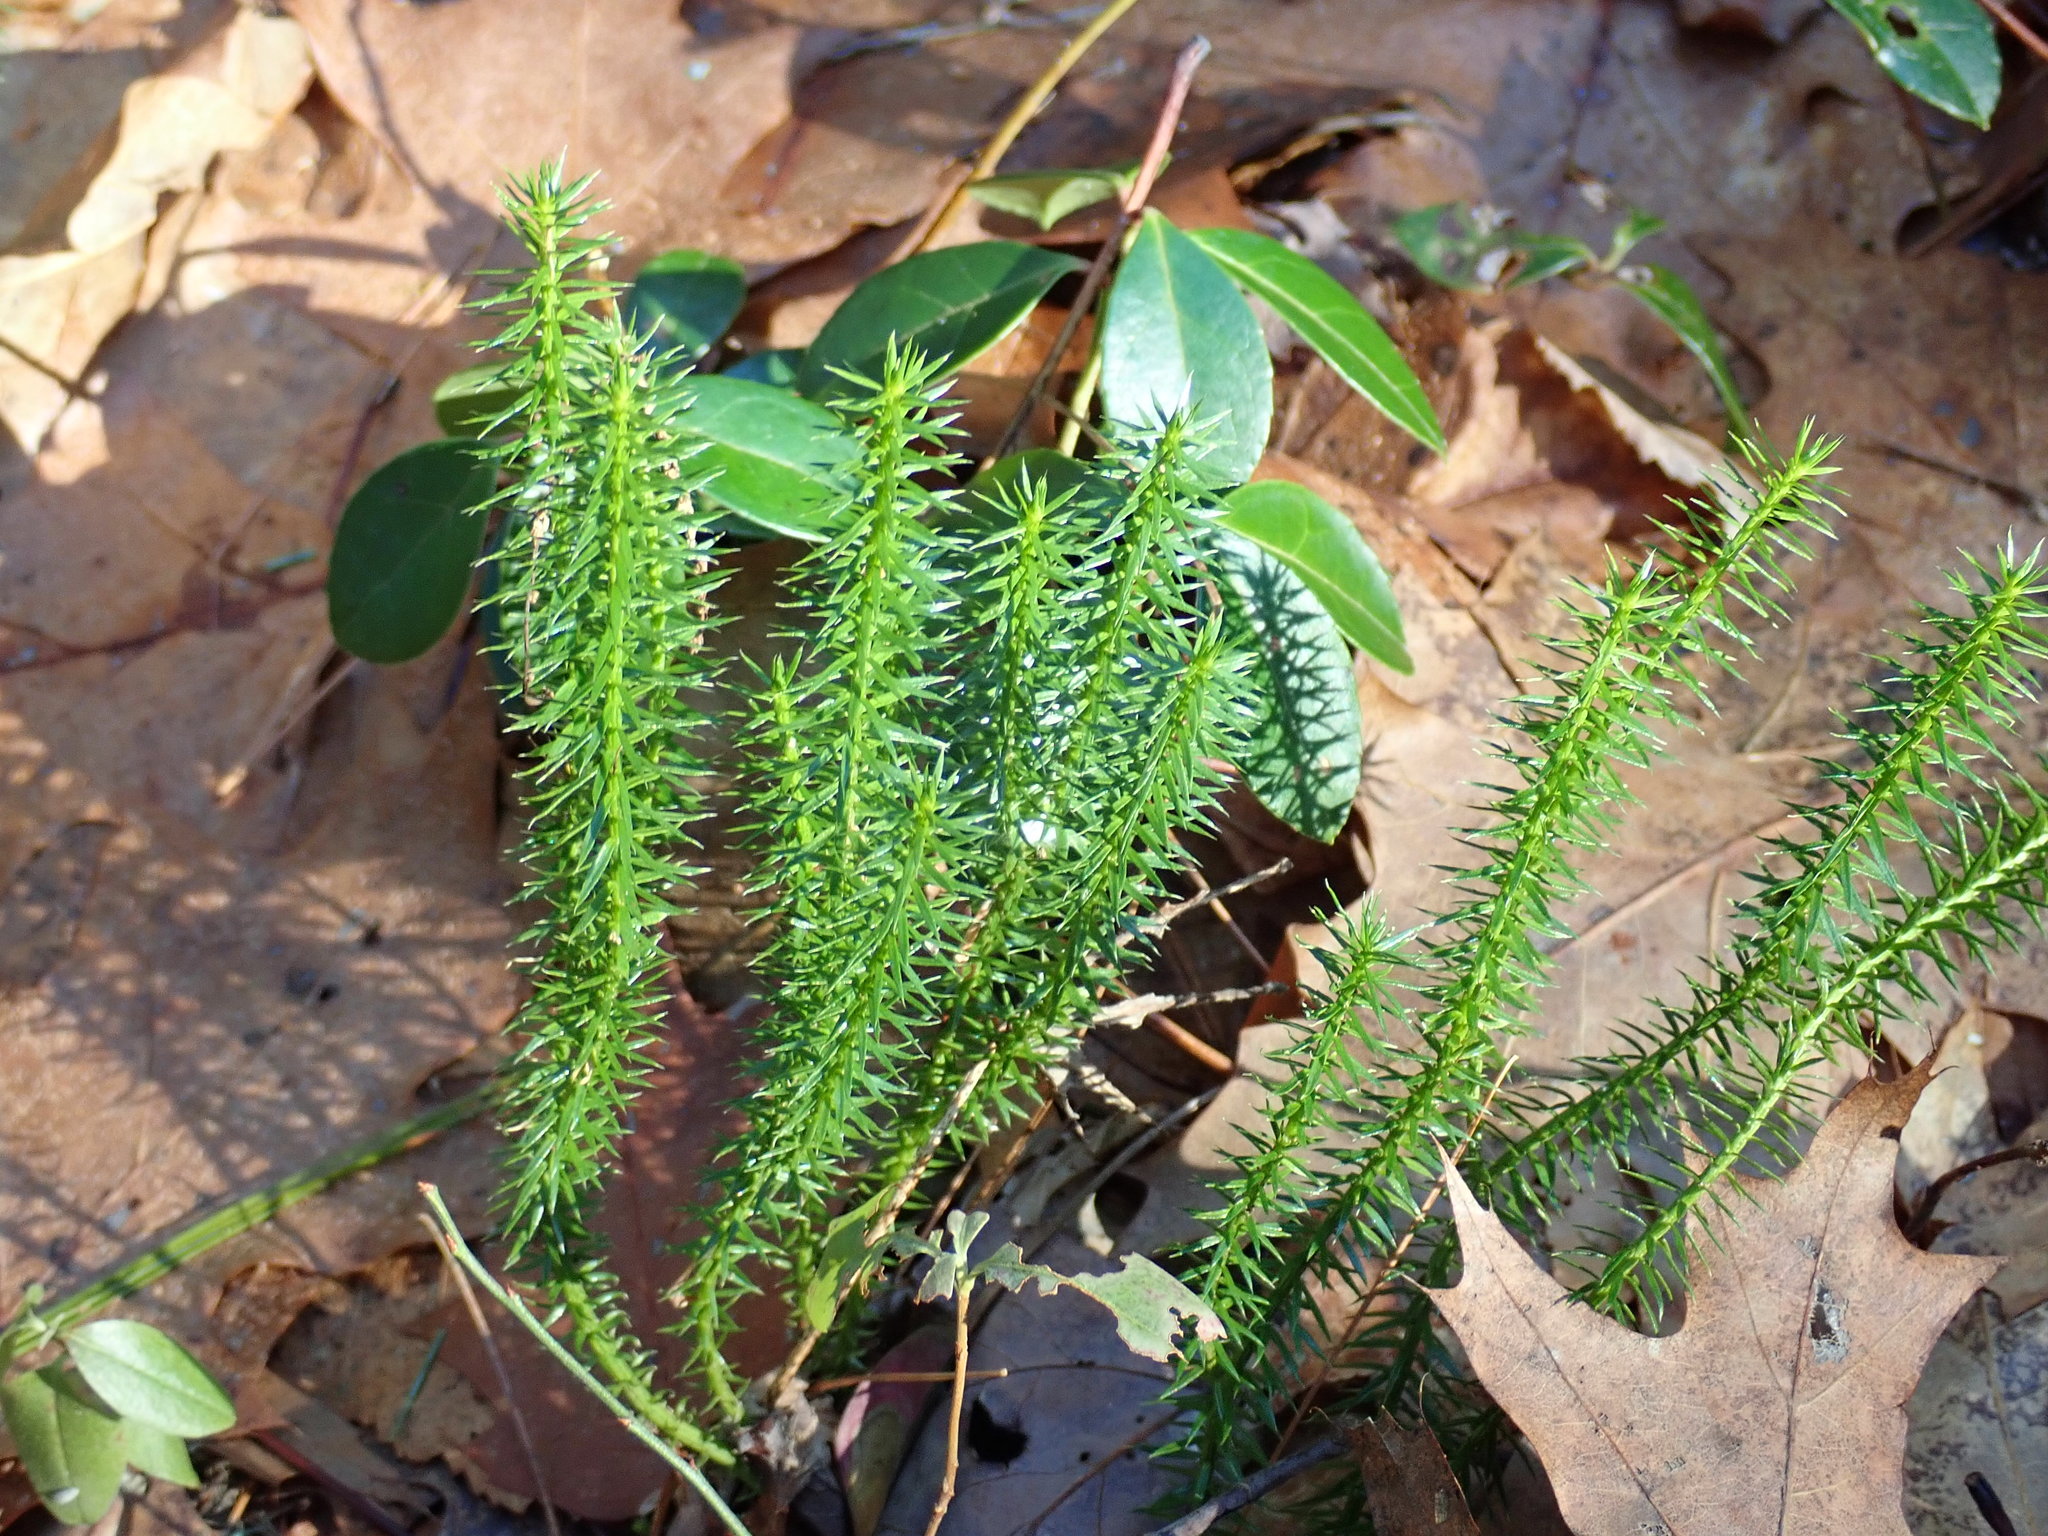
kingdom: Plantae
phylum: Tracheophyta
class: Lycopodiopsida
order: Lycopodiales
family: Lycopodiaceae
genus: Spinulum
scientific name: Spinulum annotinum
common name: Interrupted club-moss
